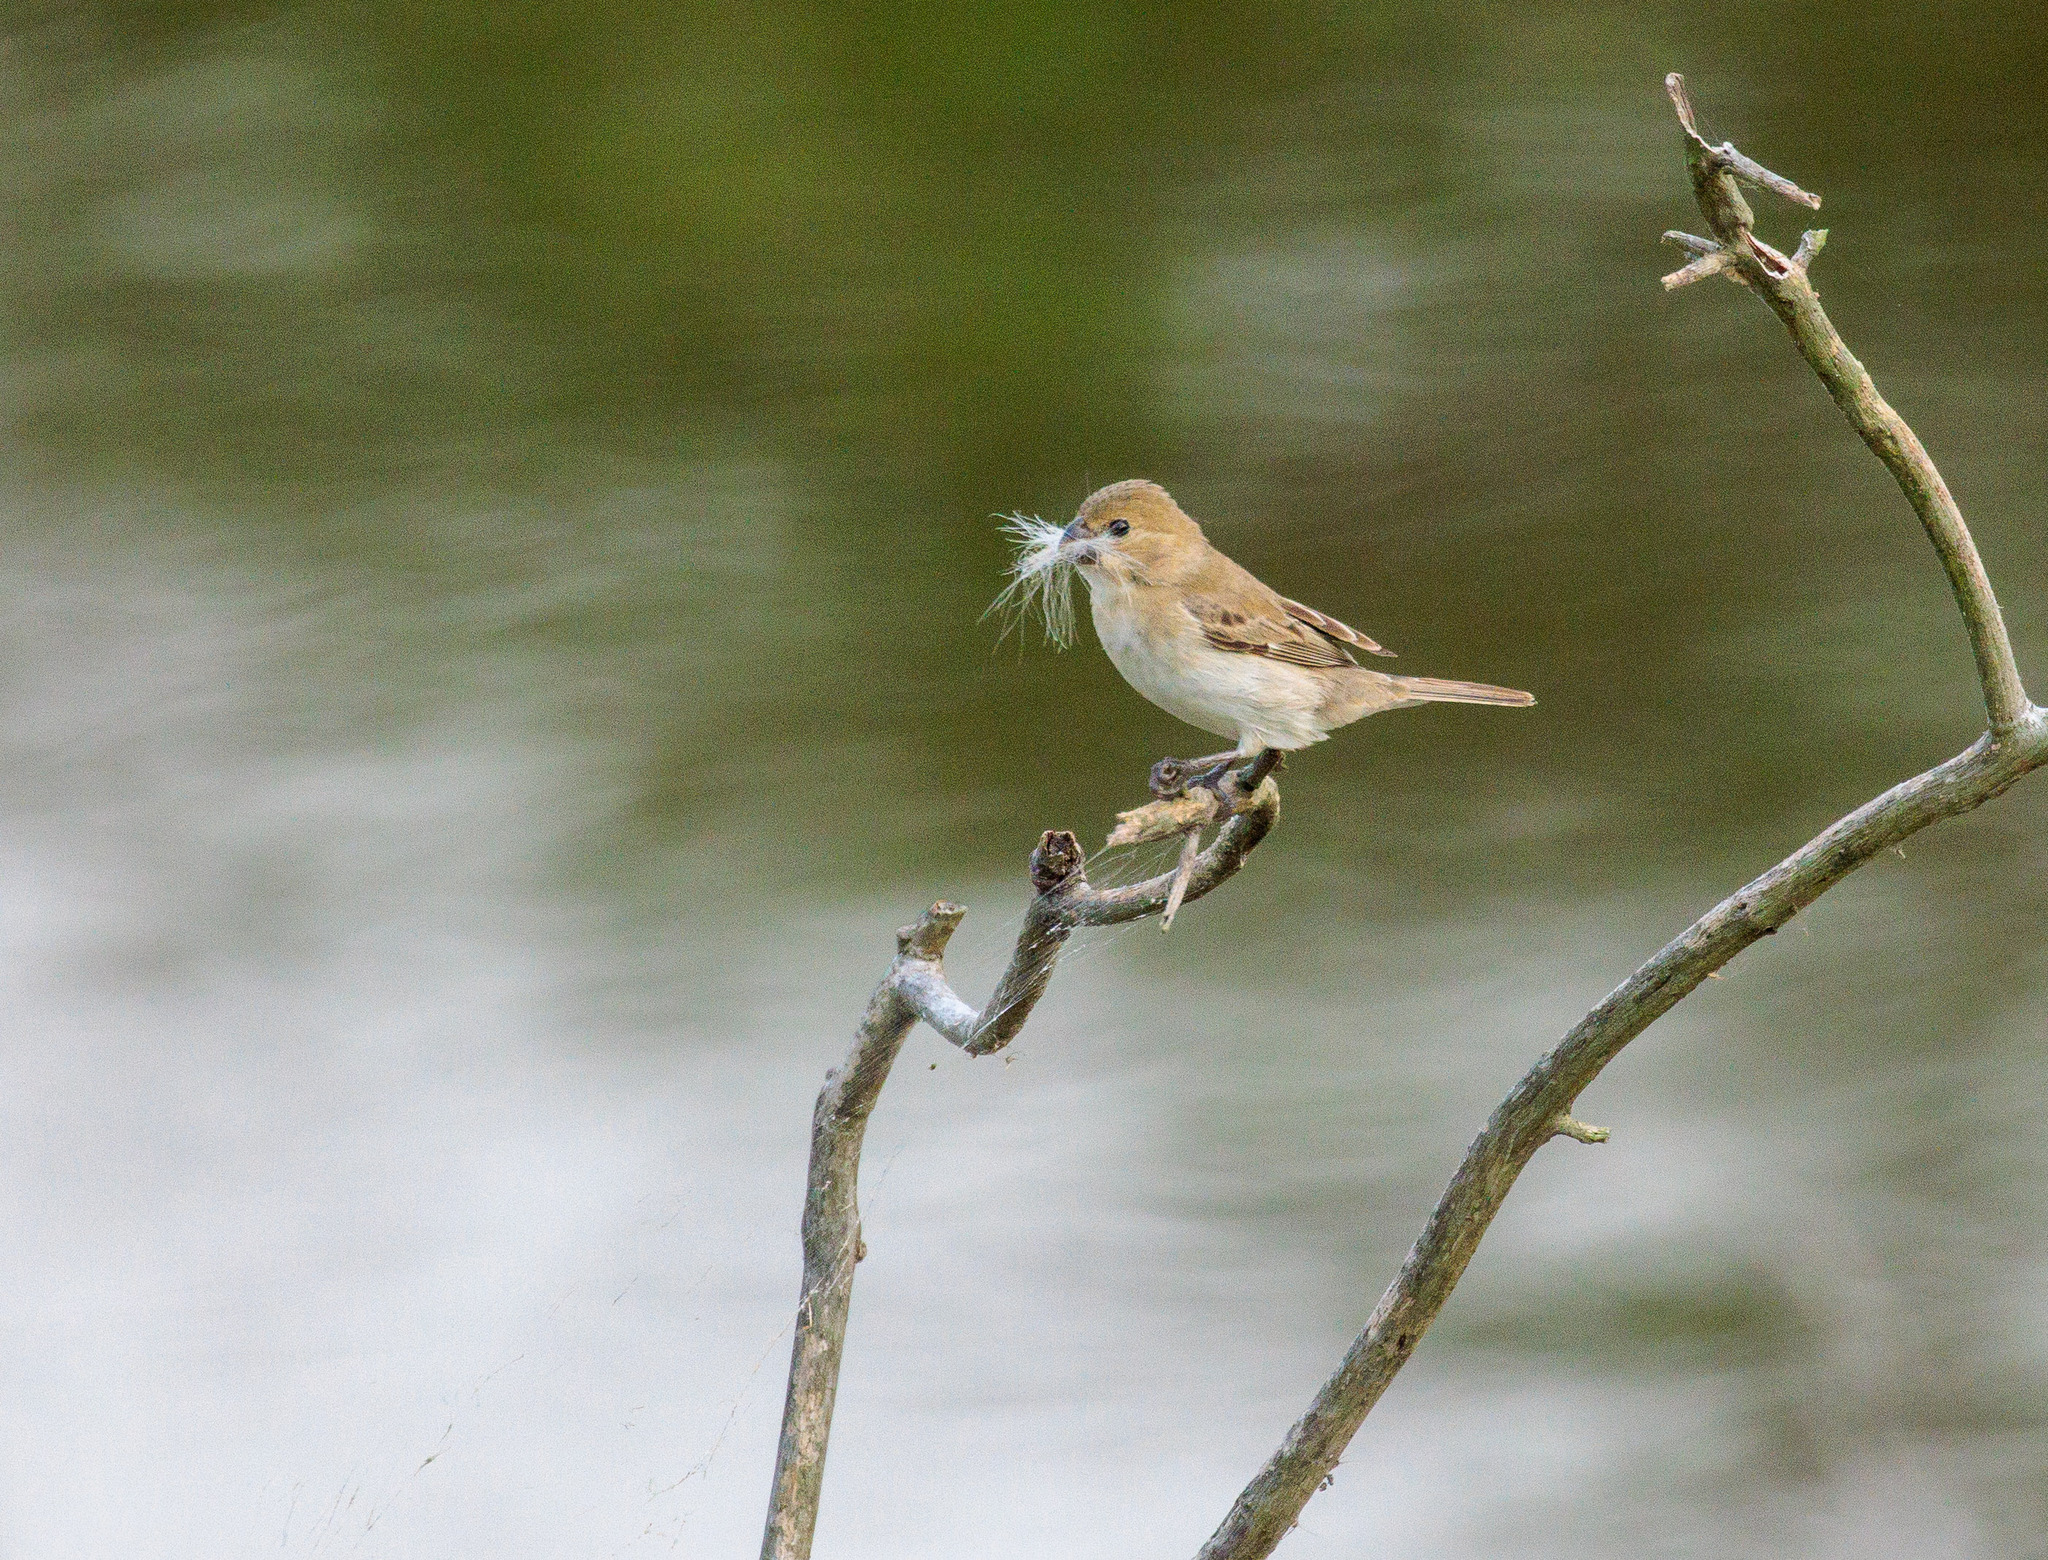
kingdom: Animalia
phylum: Chordata
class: Aves
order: Passeriformes
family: Thraupidae
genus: Sporophila
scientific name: Sporophila albogularis
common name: White-throated seedeater
